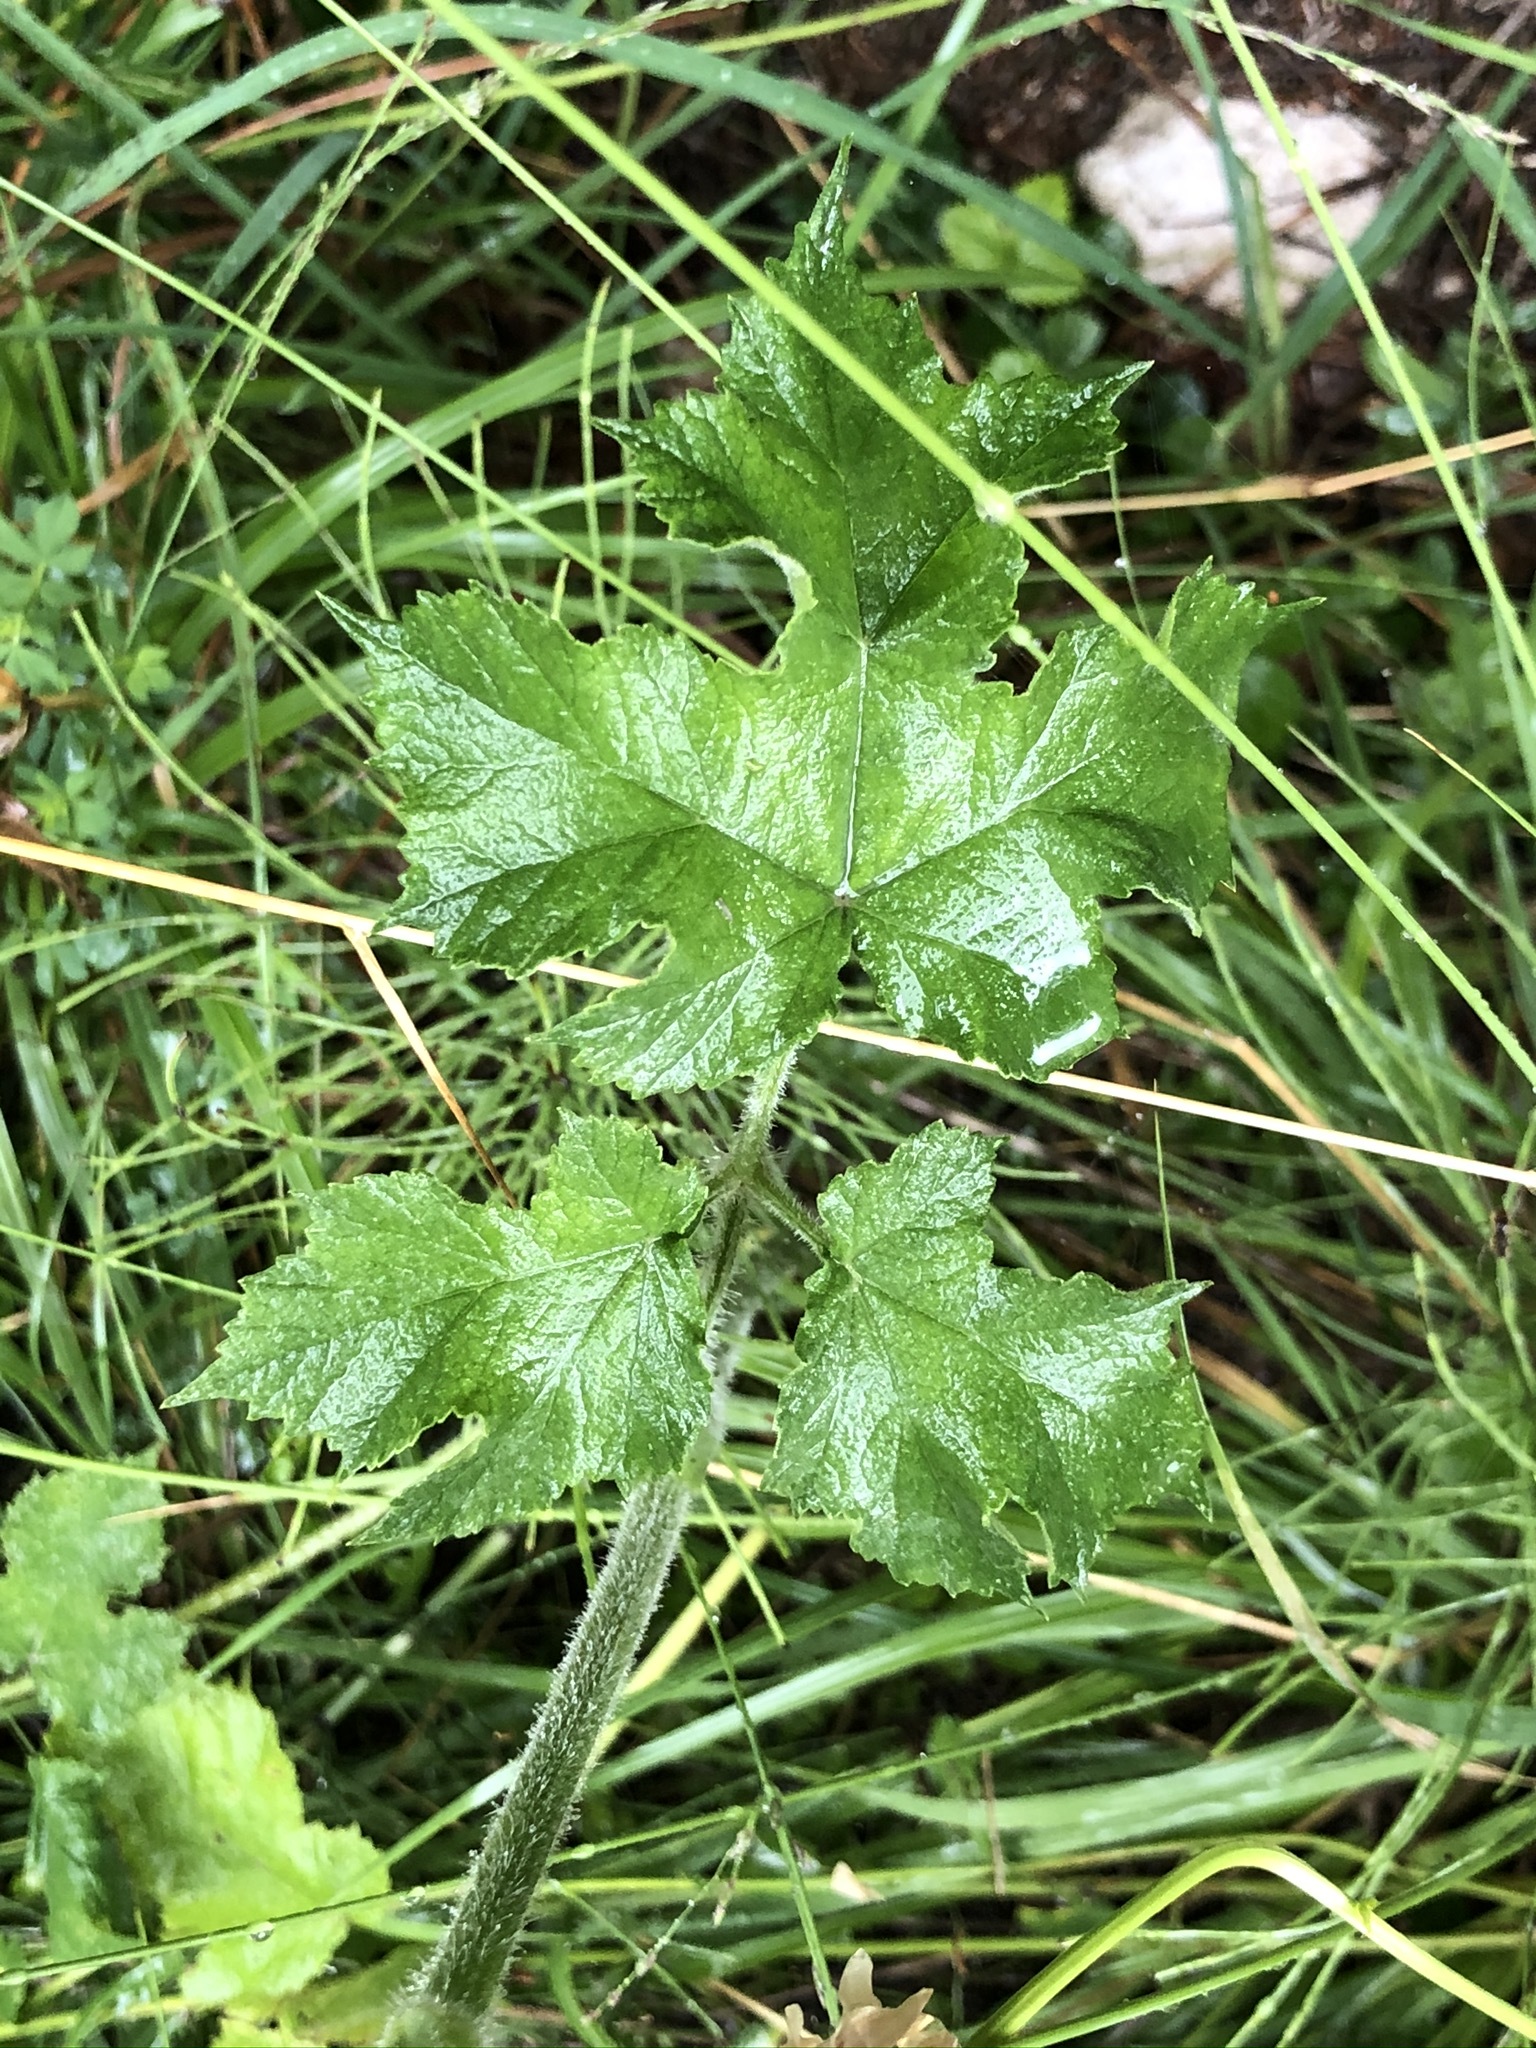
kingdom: Plantae
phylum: Tracheophyta
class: Magnoliopsida
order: Apiales
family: Apiaceae
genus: Heracleum
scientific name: Heracleum sphondylium
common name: Hogweed
